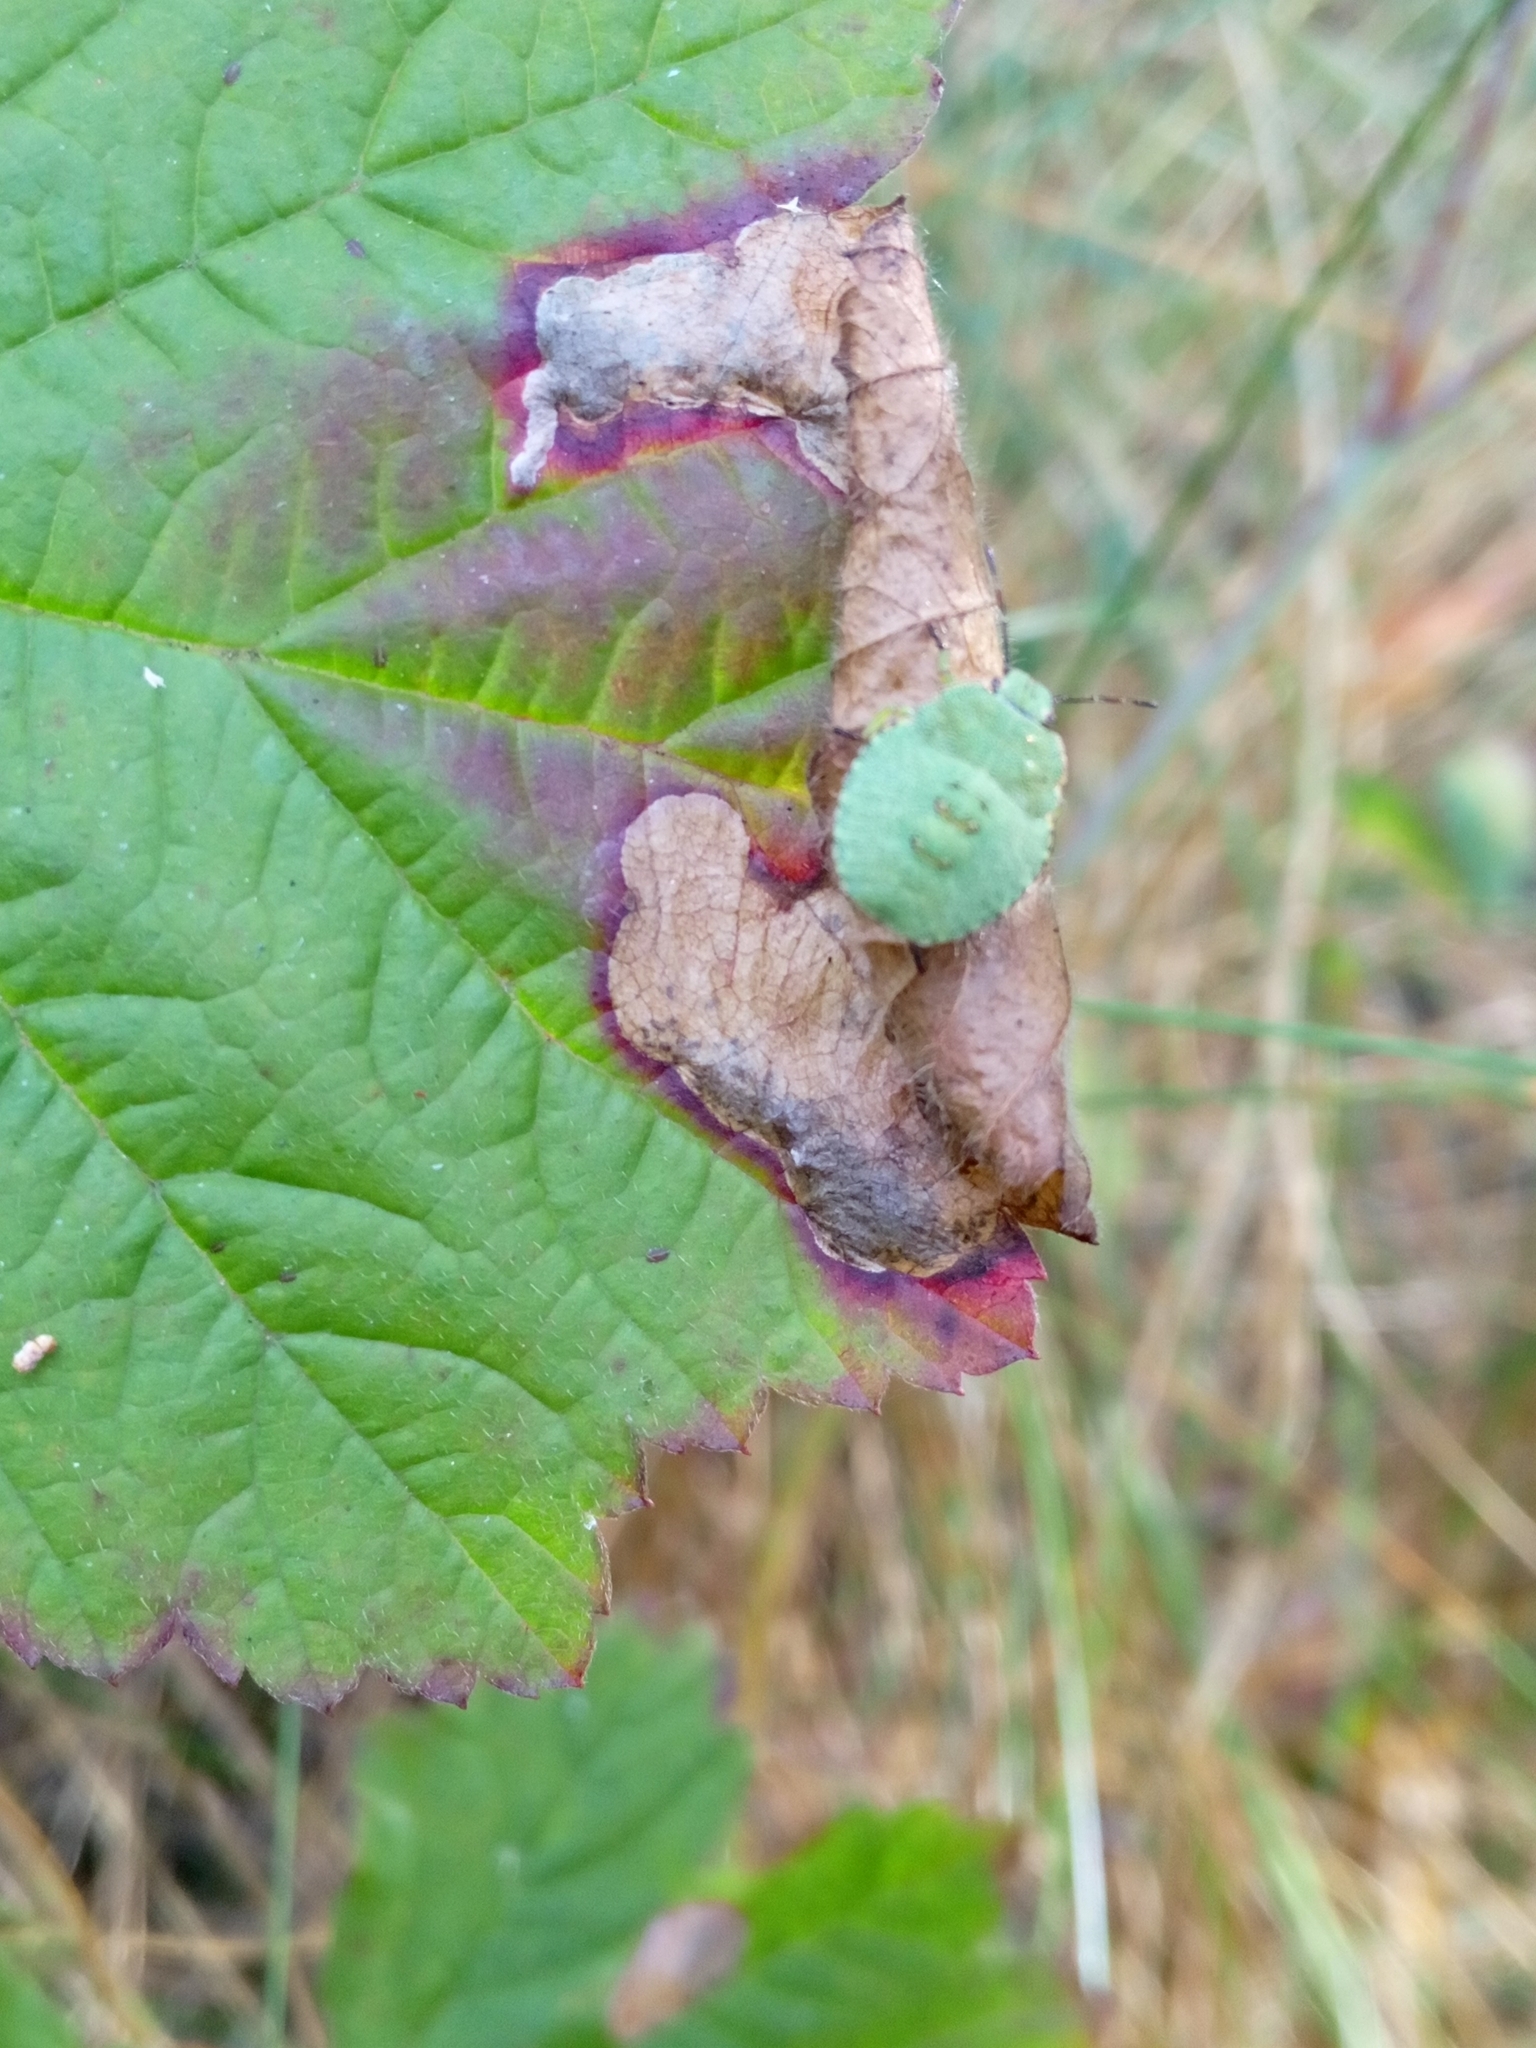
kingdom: Animalia
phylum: Arthropoda
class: Insecta
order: Hemiptera
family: Pentatomidae
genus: Palomena
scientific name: Palomena prasina
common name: Green shieldbug
